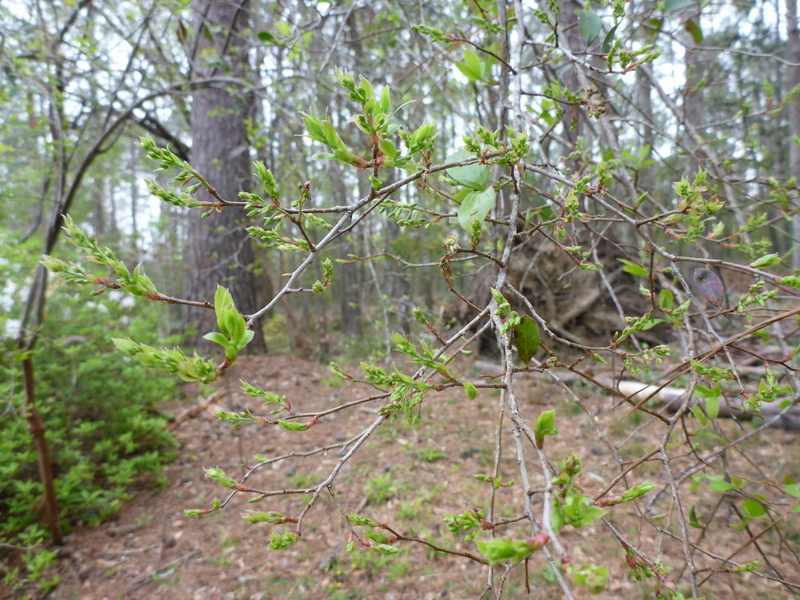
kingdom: Plantae
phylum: Tracheophyta
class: Magnoliopsida
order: Ericales
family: Ericaceae
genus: Vaccinium
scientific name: Vaccinium arboreum
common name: Farkleberry
